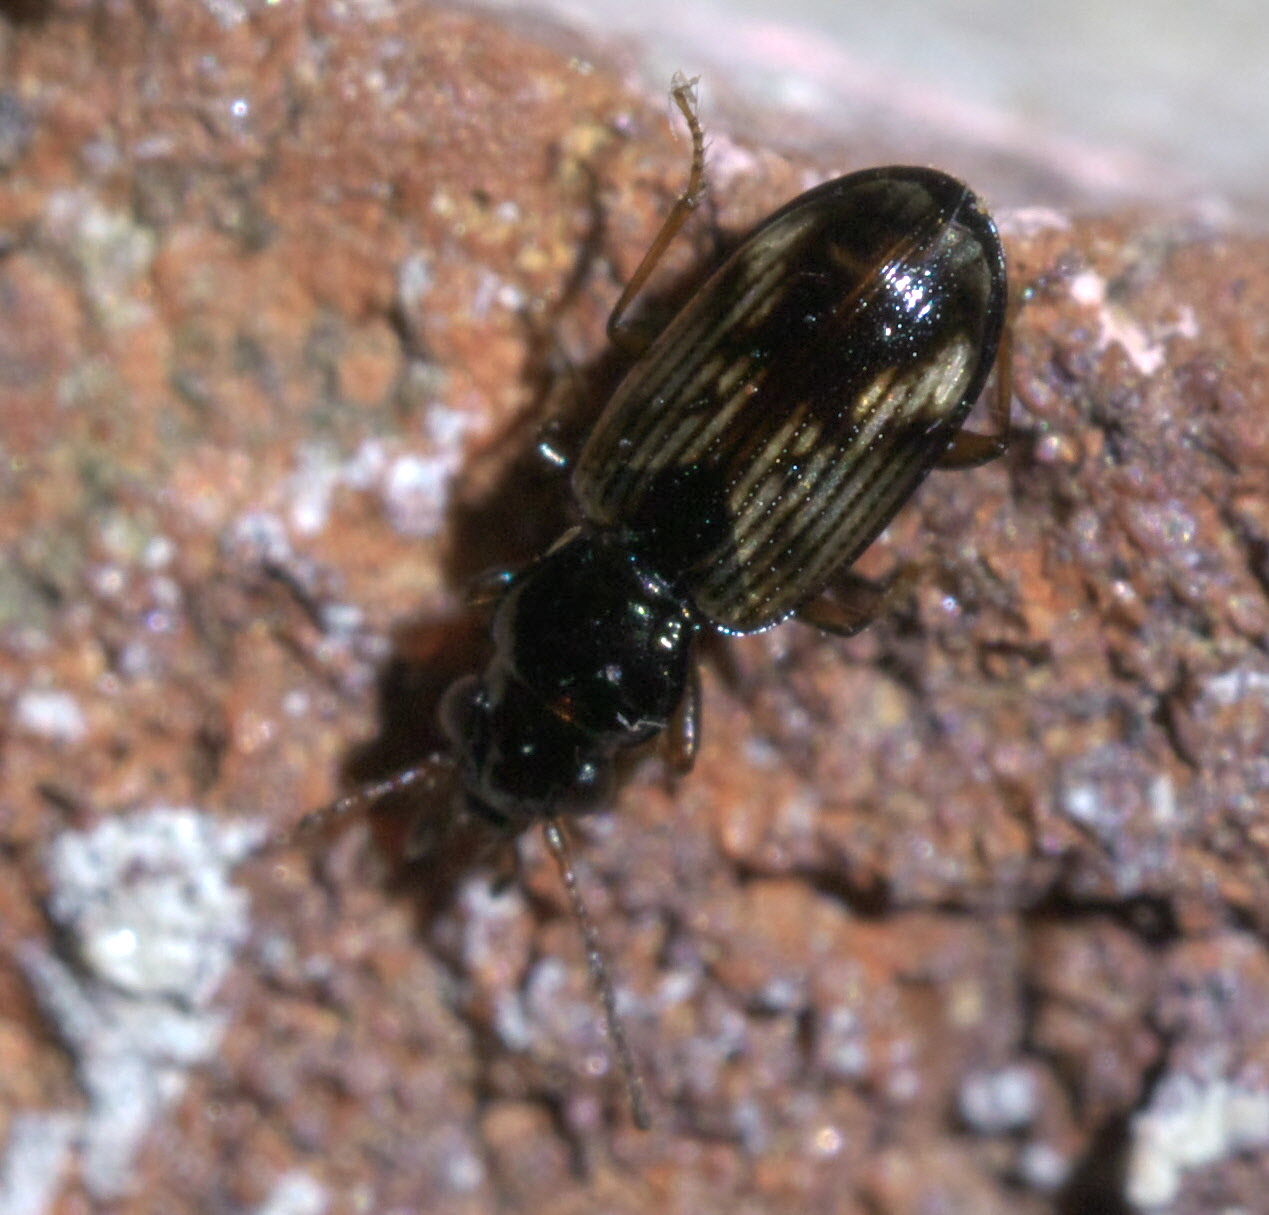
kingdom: Animalia
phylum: Arthropoda
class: Insecta
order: Coleoptera
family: Carabidae
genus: Bembidion
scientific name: Bembidion impotens
